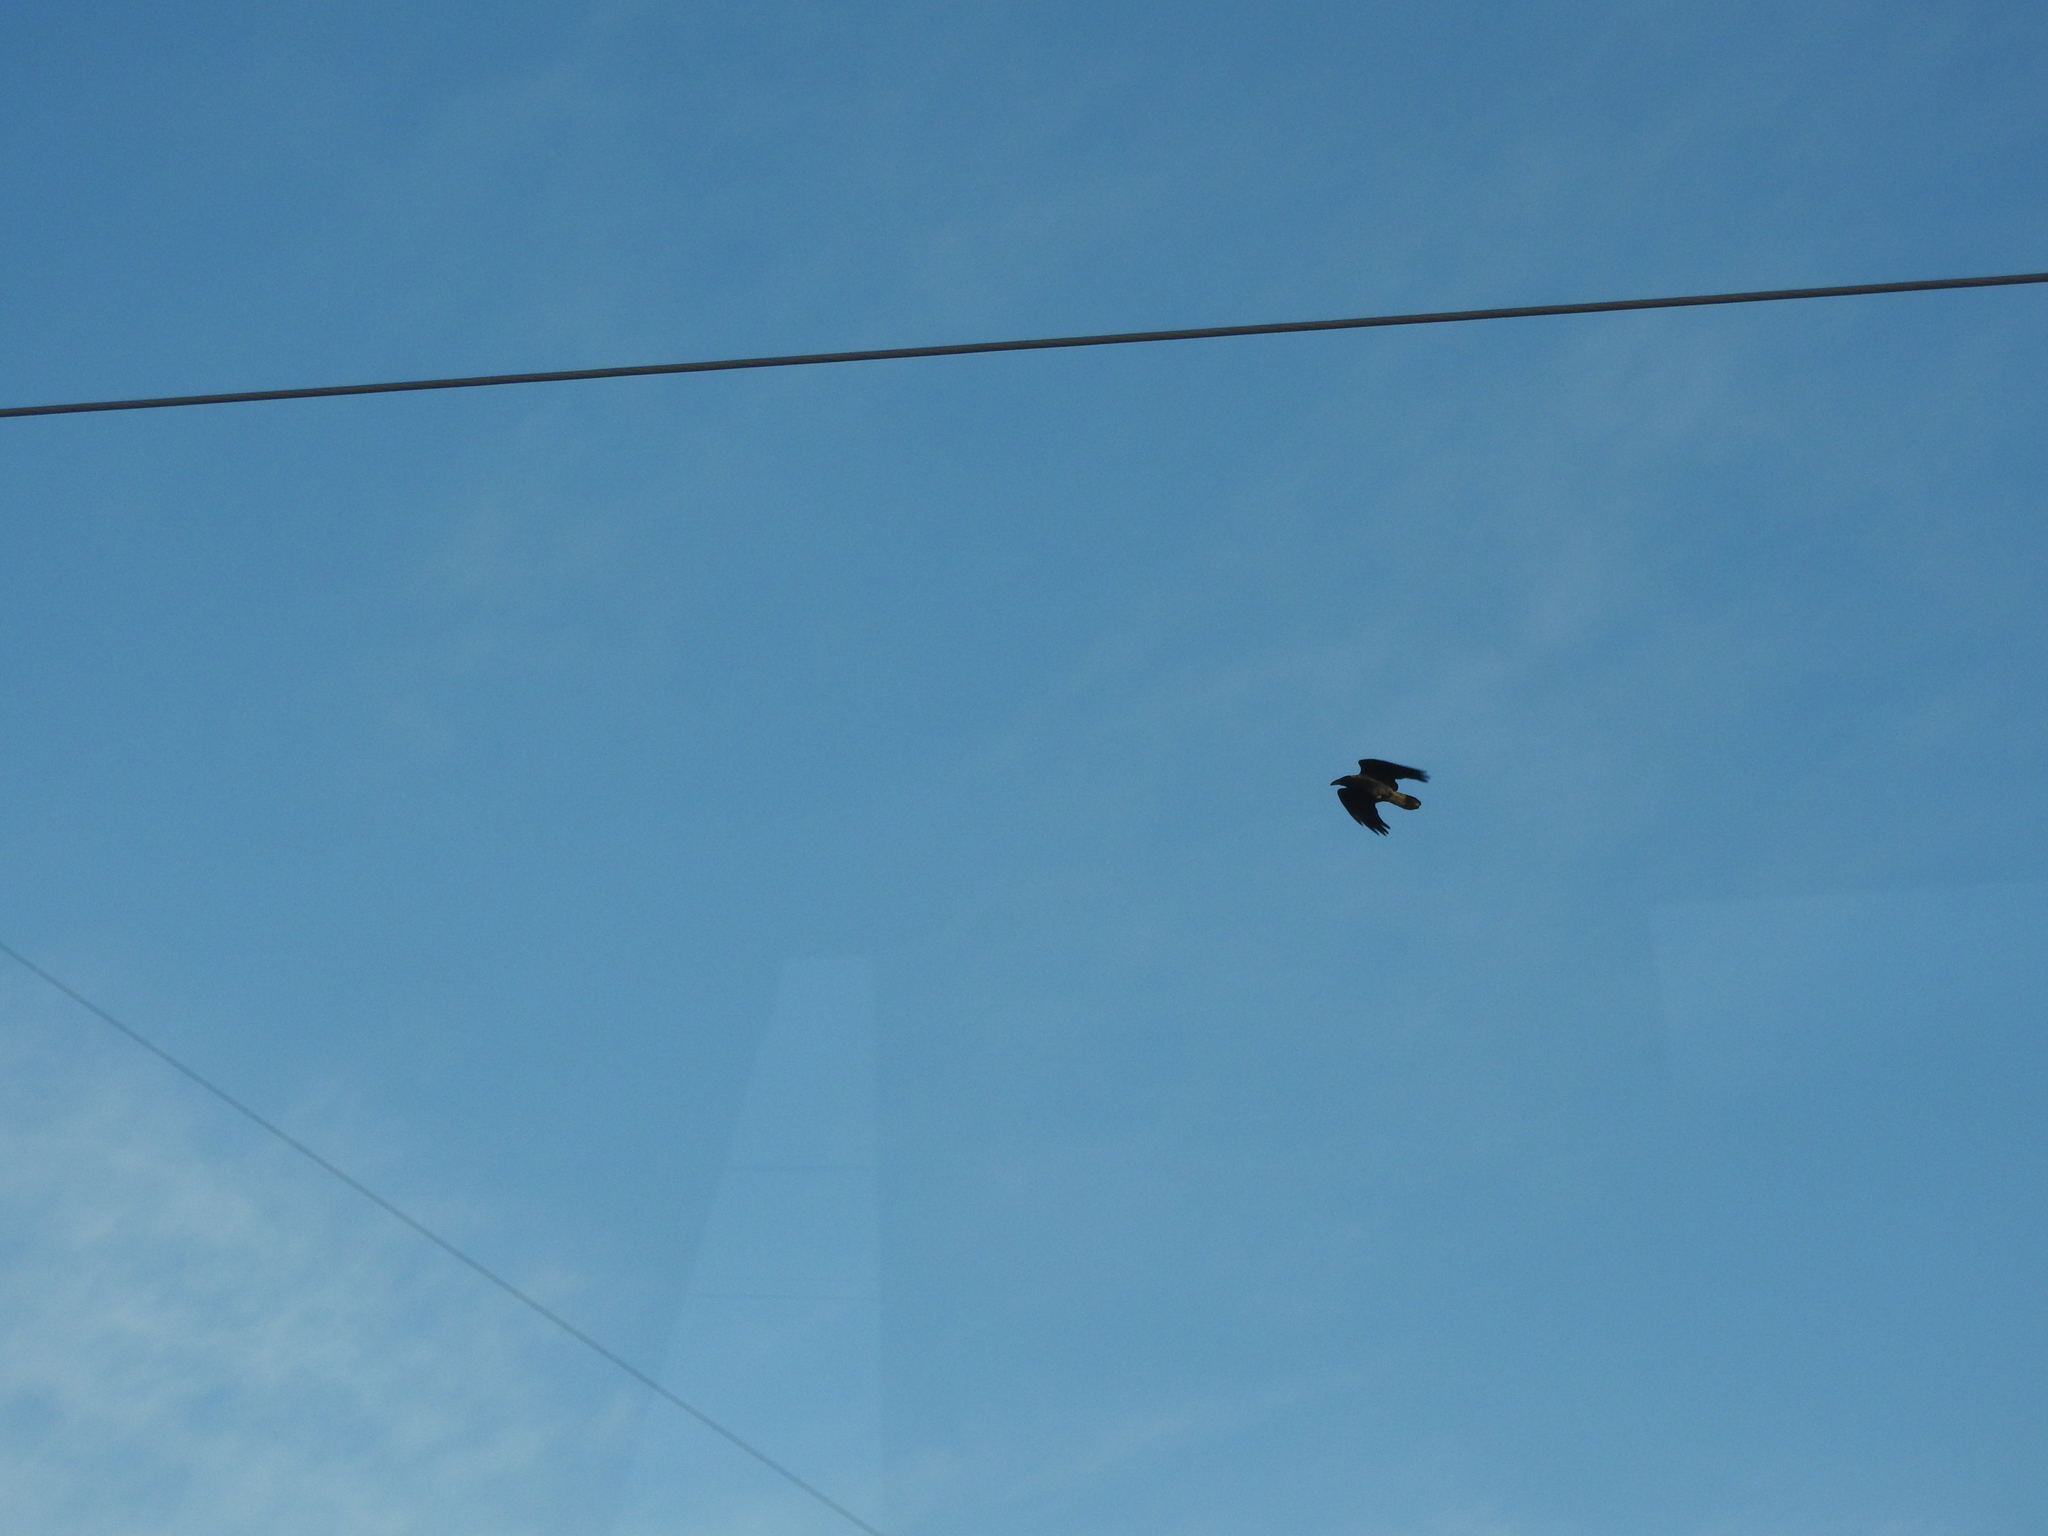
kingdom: Animalia
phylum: Chordata
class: Aves
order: Passeriformes
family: Corvidae
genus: Corvus
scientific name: Corvus corax
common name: Common raven
